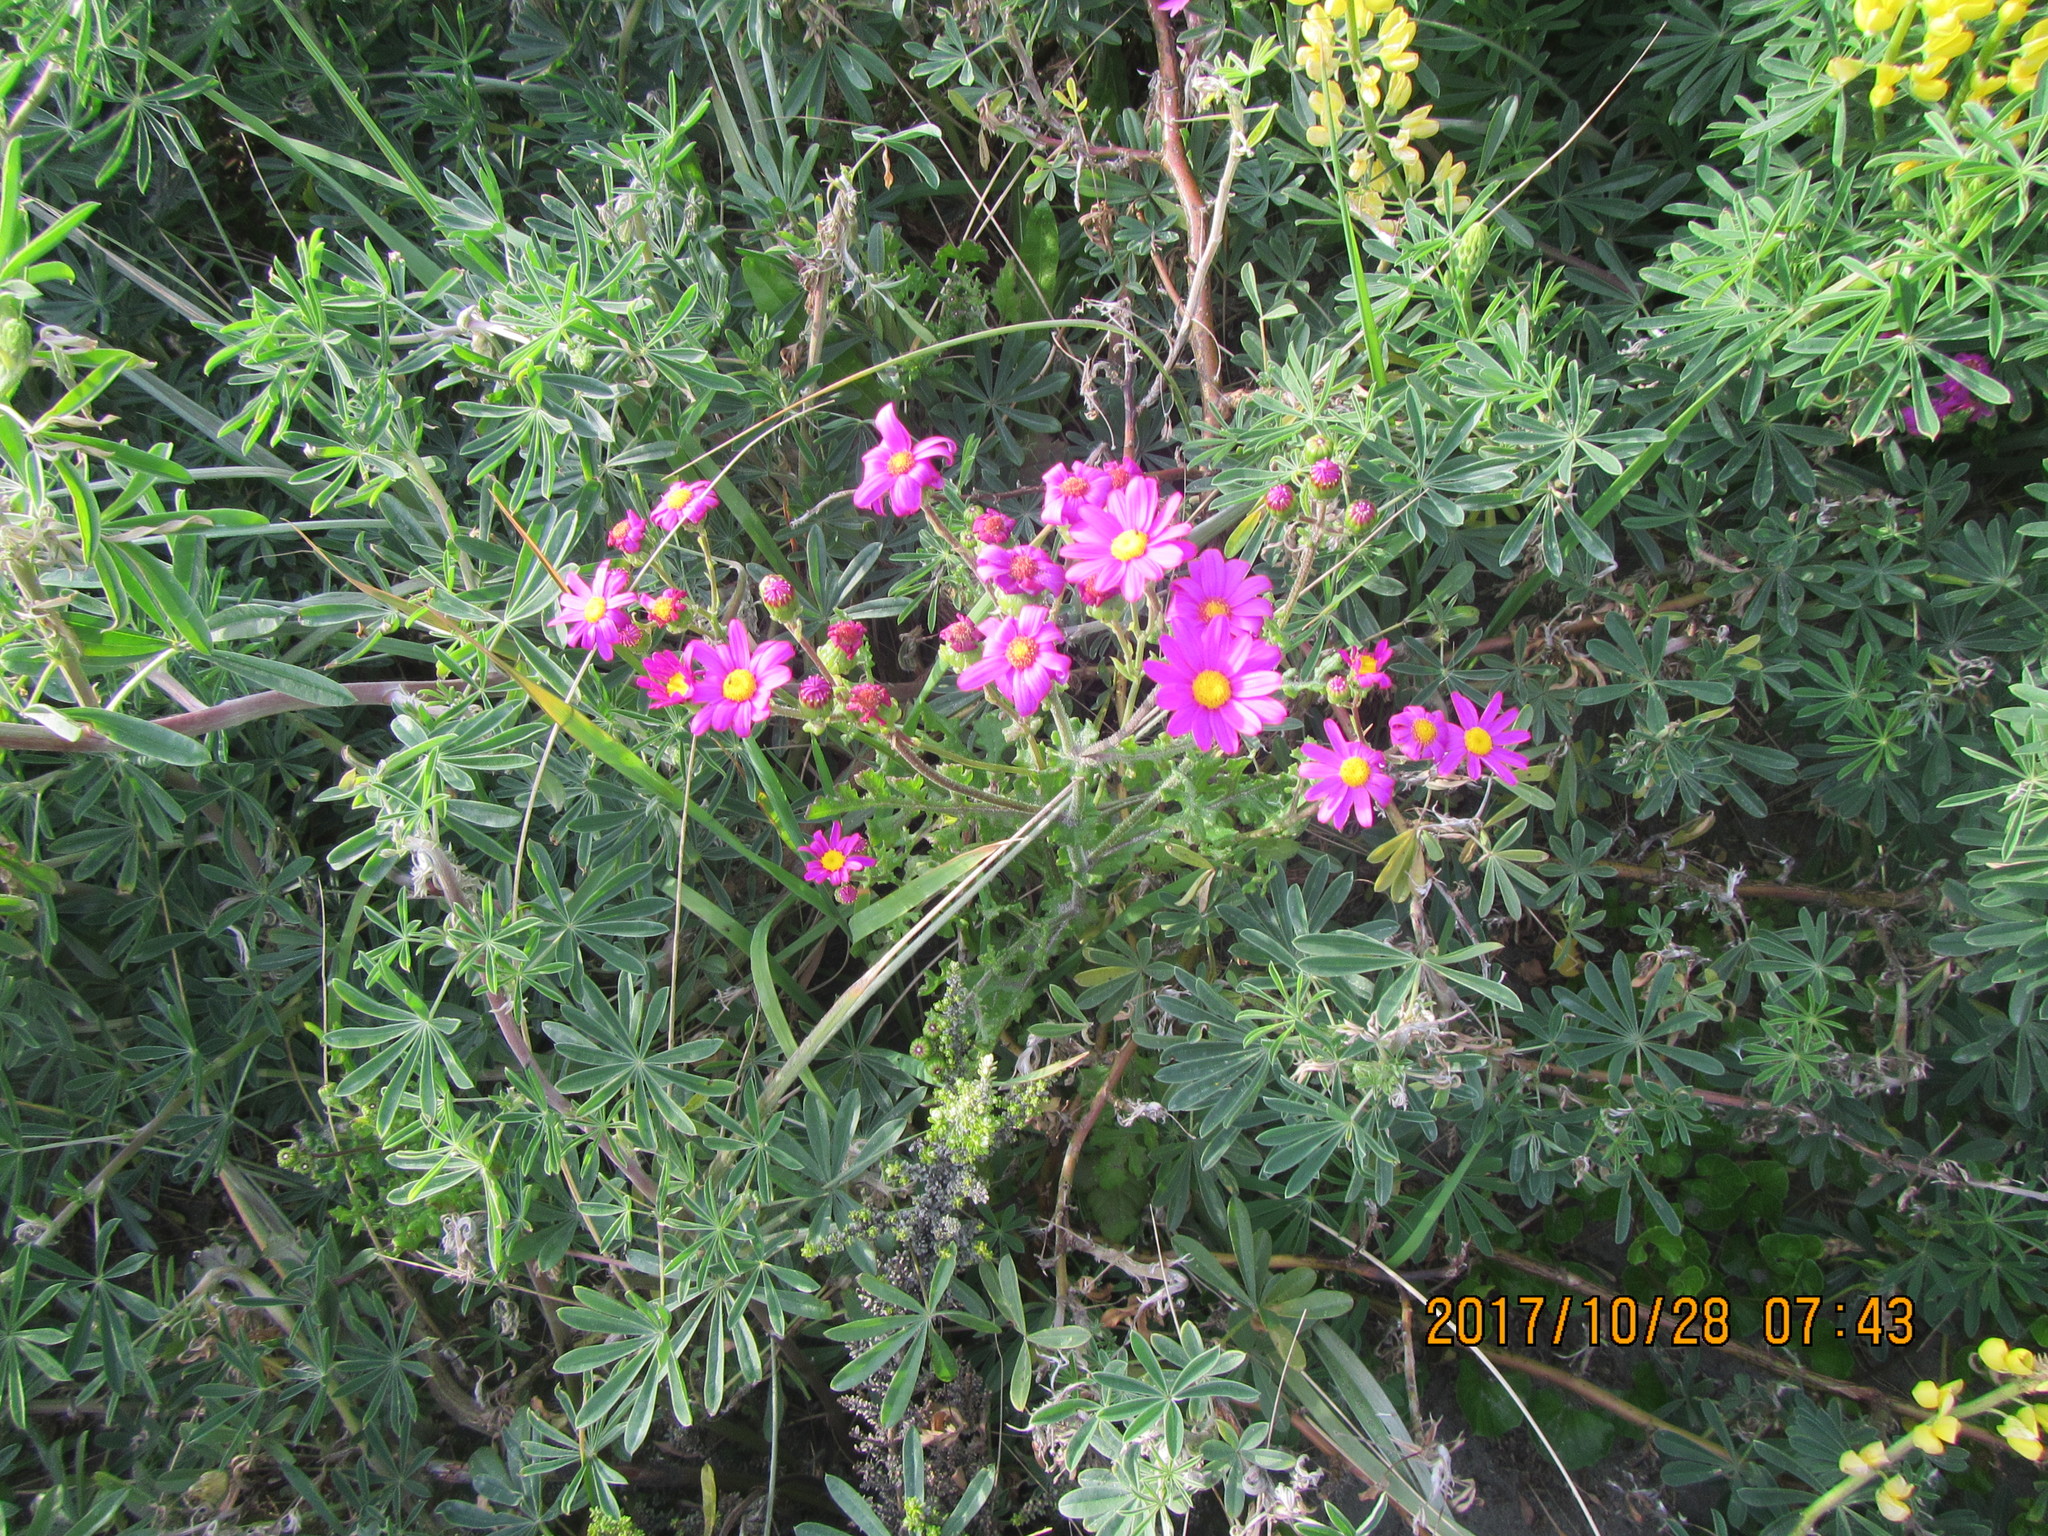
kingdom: Plantae
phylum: Tracheophyta
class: Magnoliopsida
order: Asterales
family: Asteraceae
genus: Senecio
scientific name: Senecio elegans
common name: Purple groundsel
